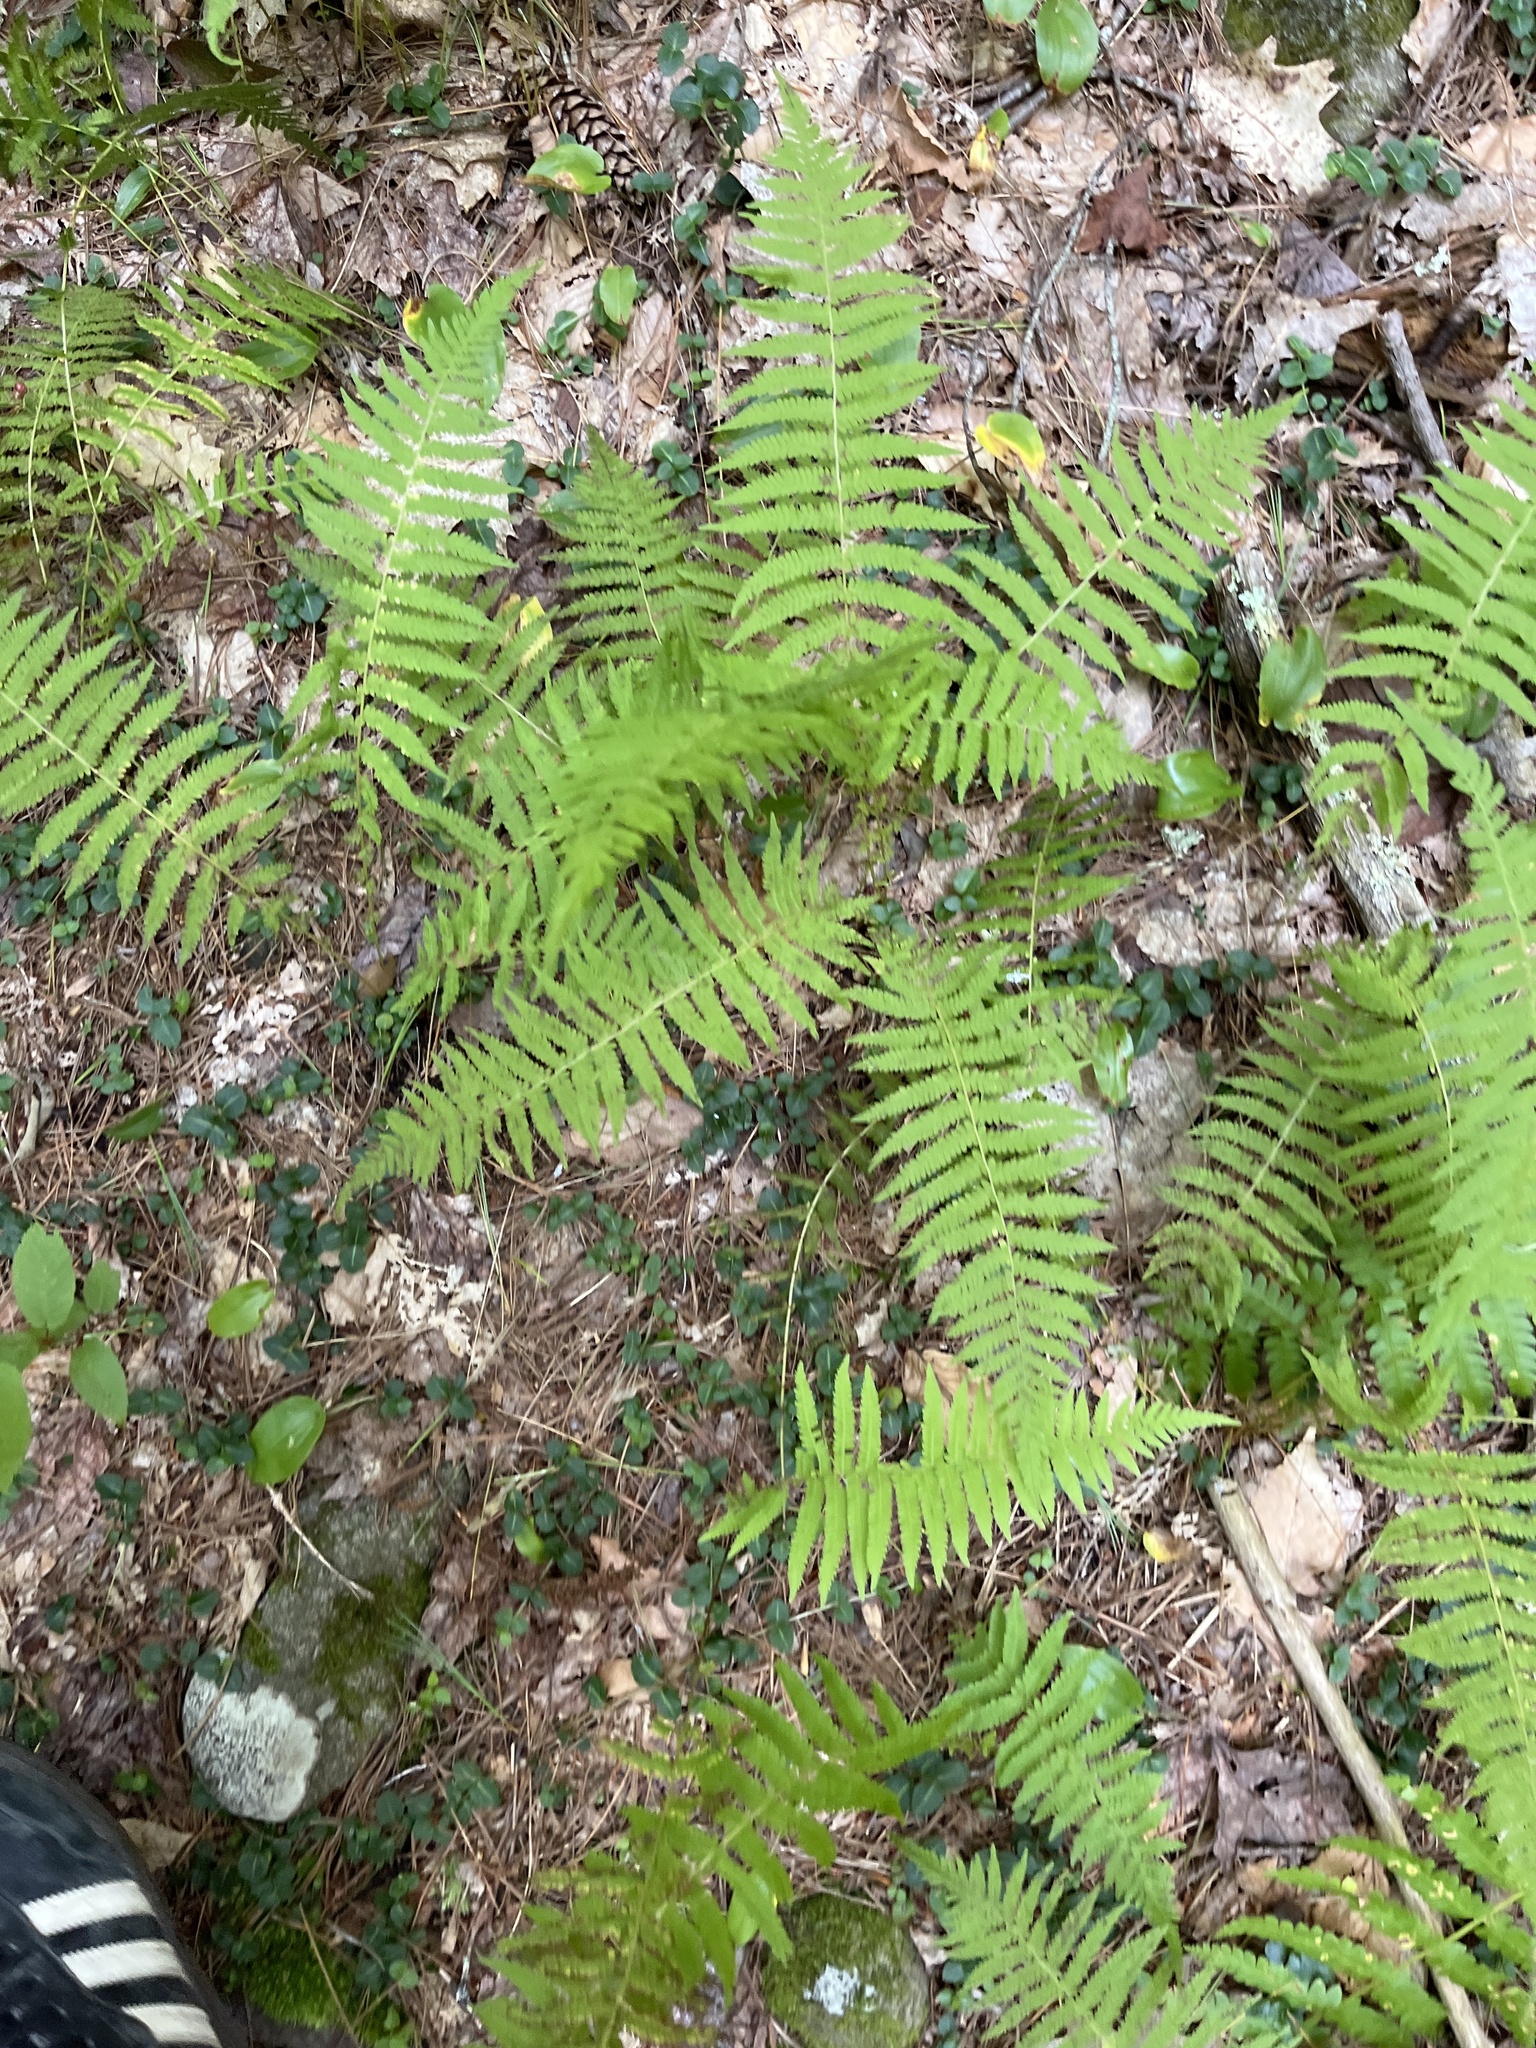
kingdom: Plantae
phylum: Tracheophyta
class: Polypodiopsida
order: Polypodiales
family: Thelypteridaceae
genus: Amauropelta
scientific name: Amauropelta noveboracensis
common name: New york fern
